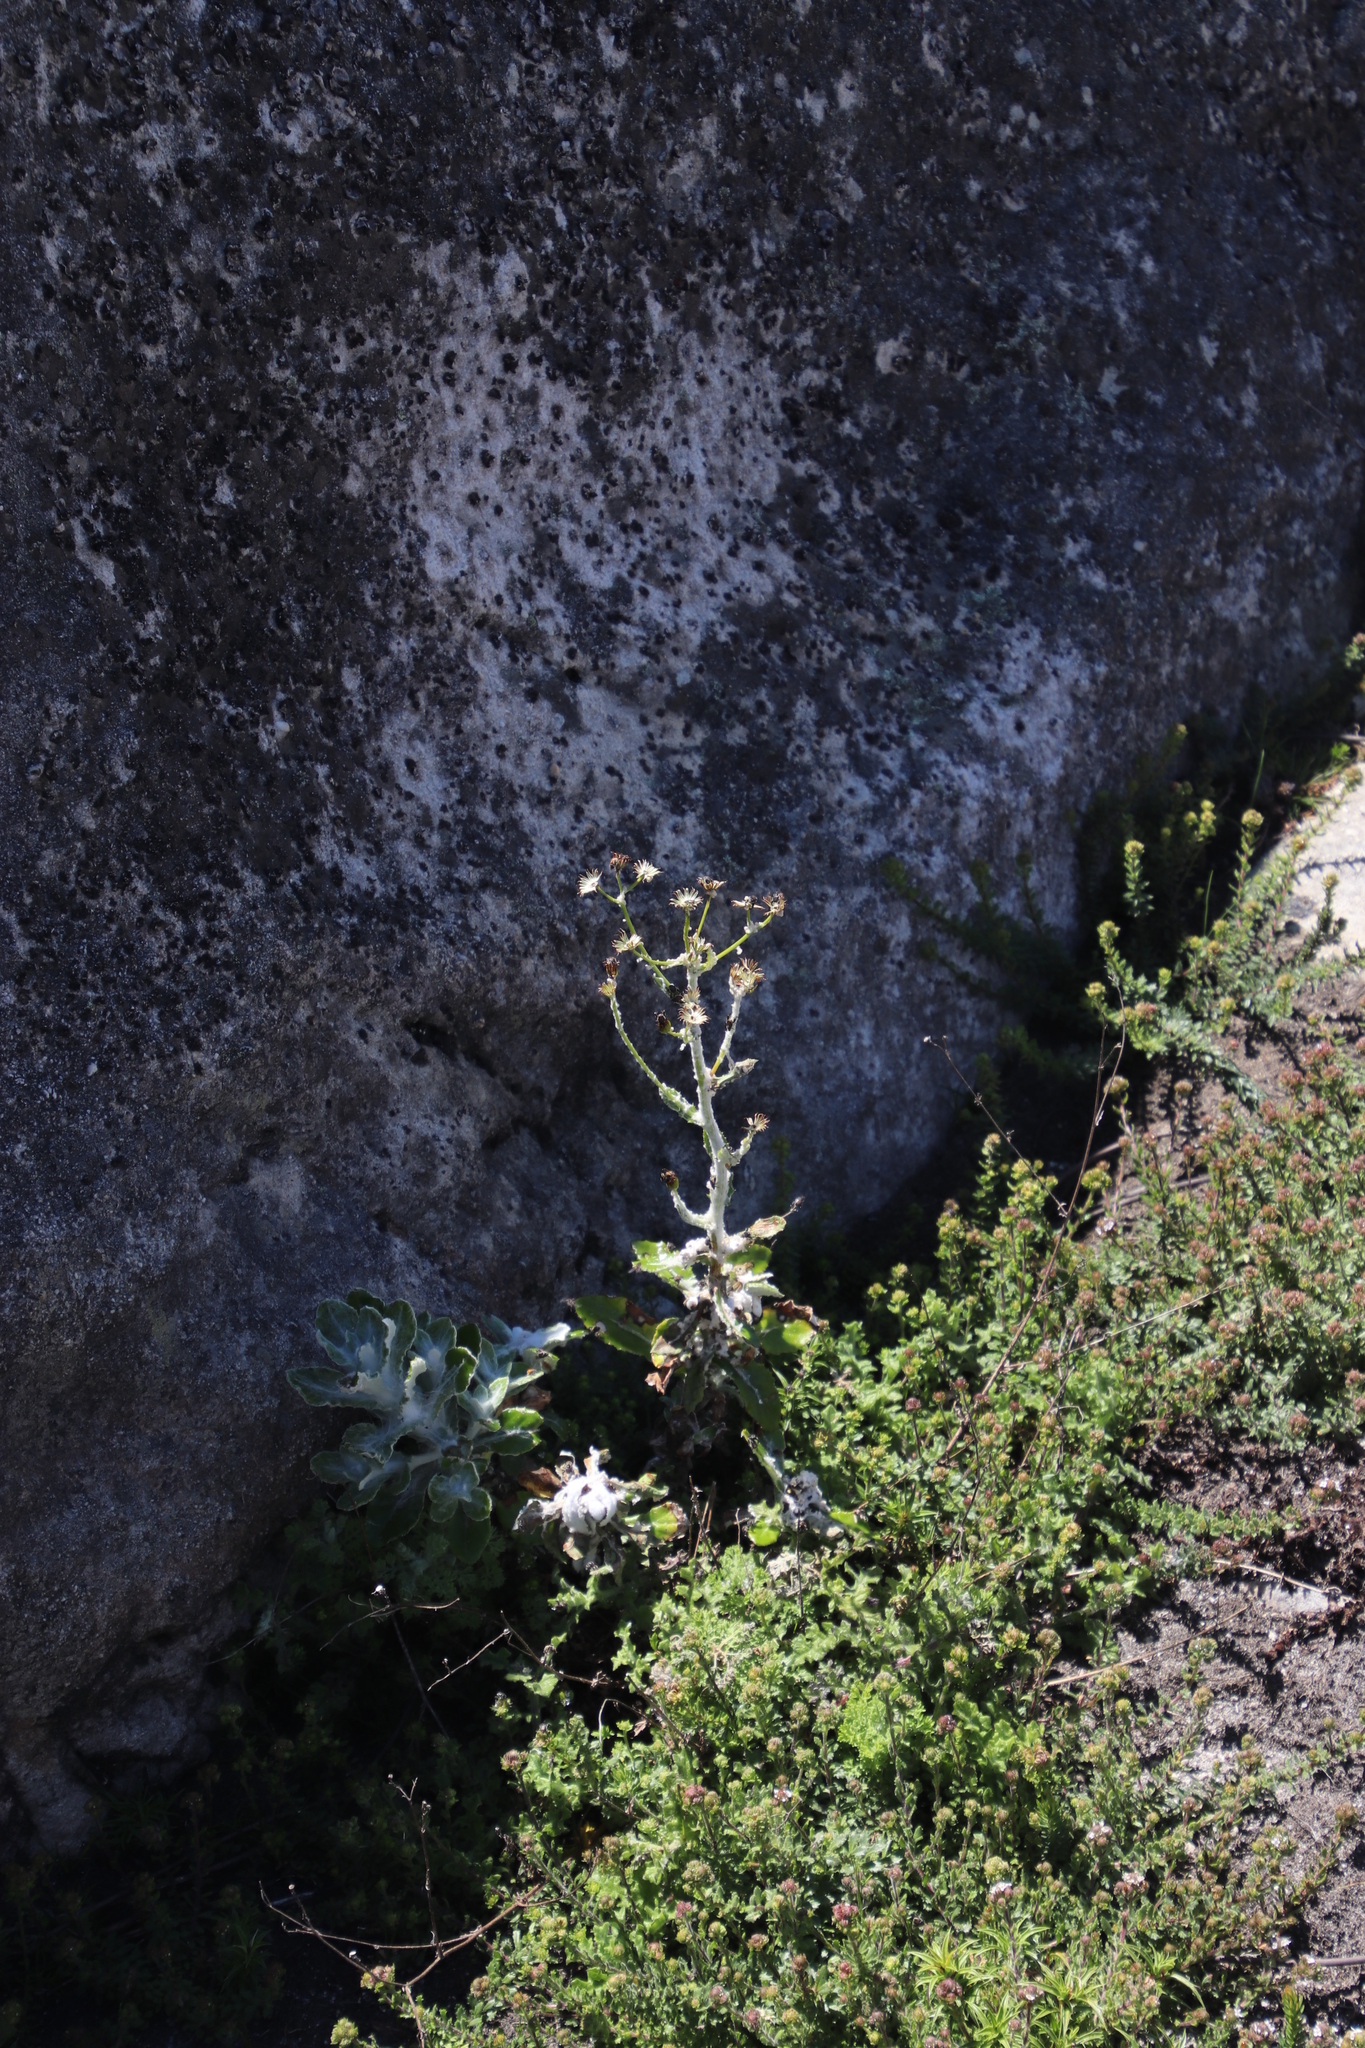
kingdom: Plantae
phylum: Tracheophyta
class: Magnoliopsida
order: Asterales
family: Asteraceae
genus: Oresbia
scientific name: Oresbia heterocarpa
